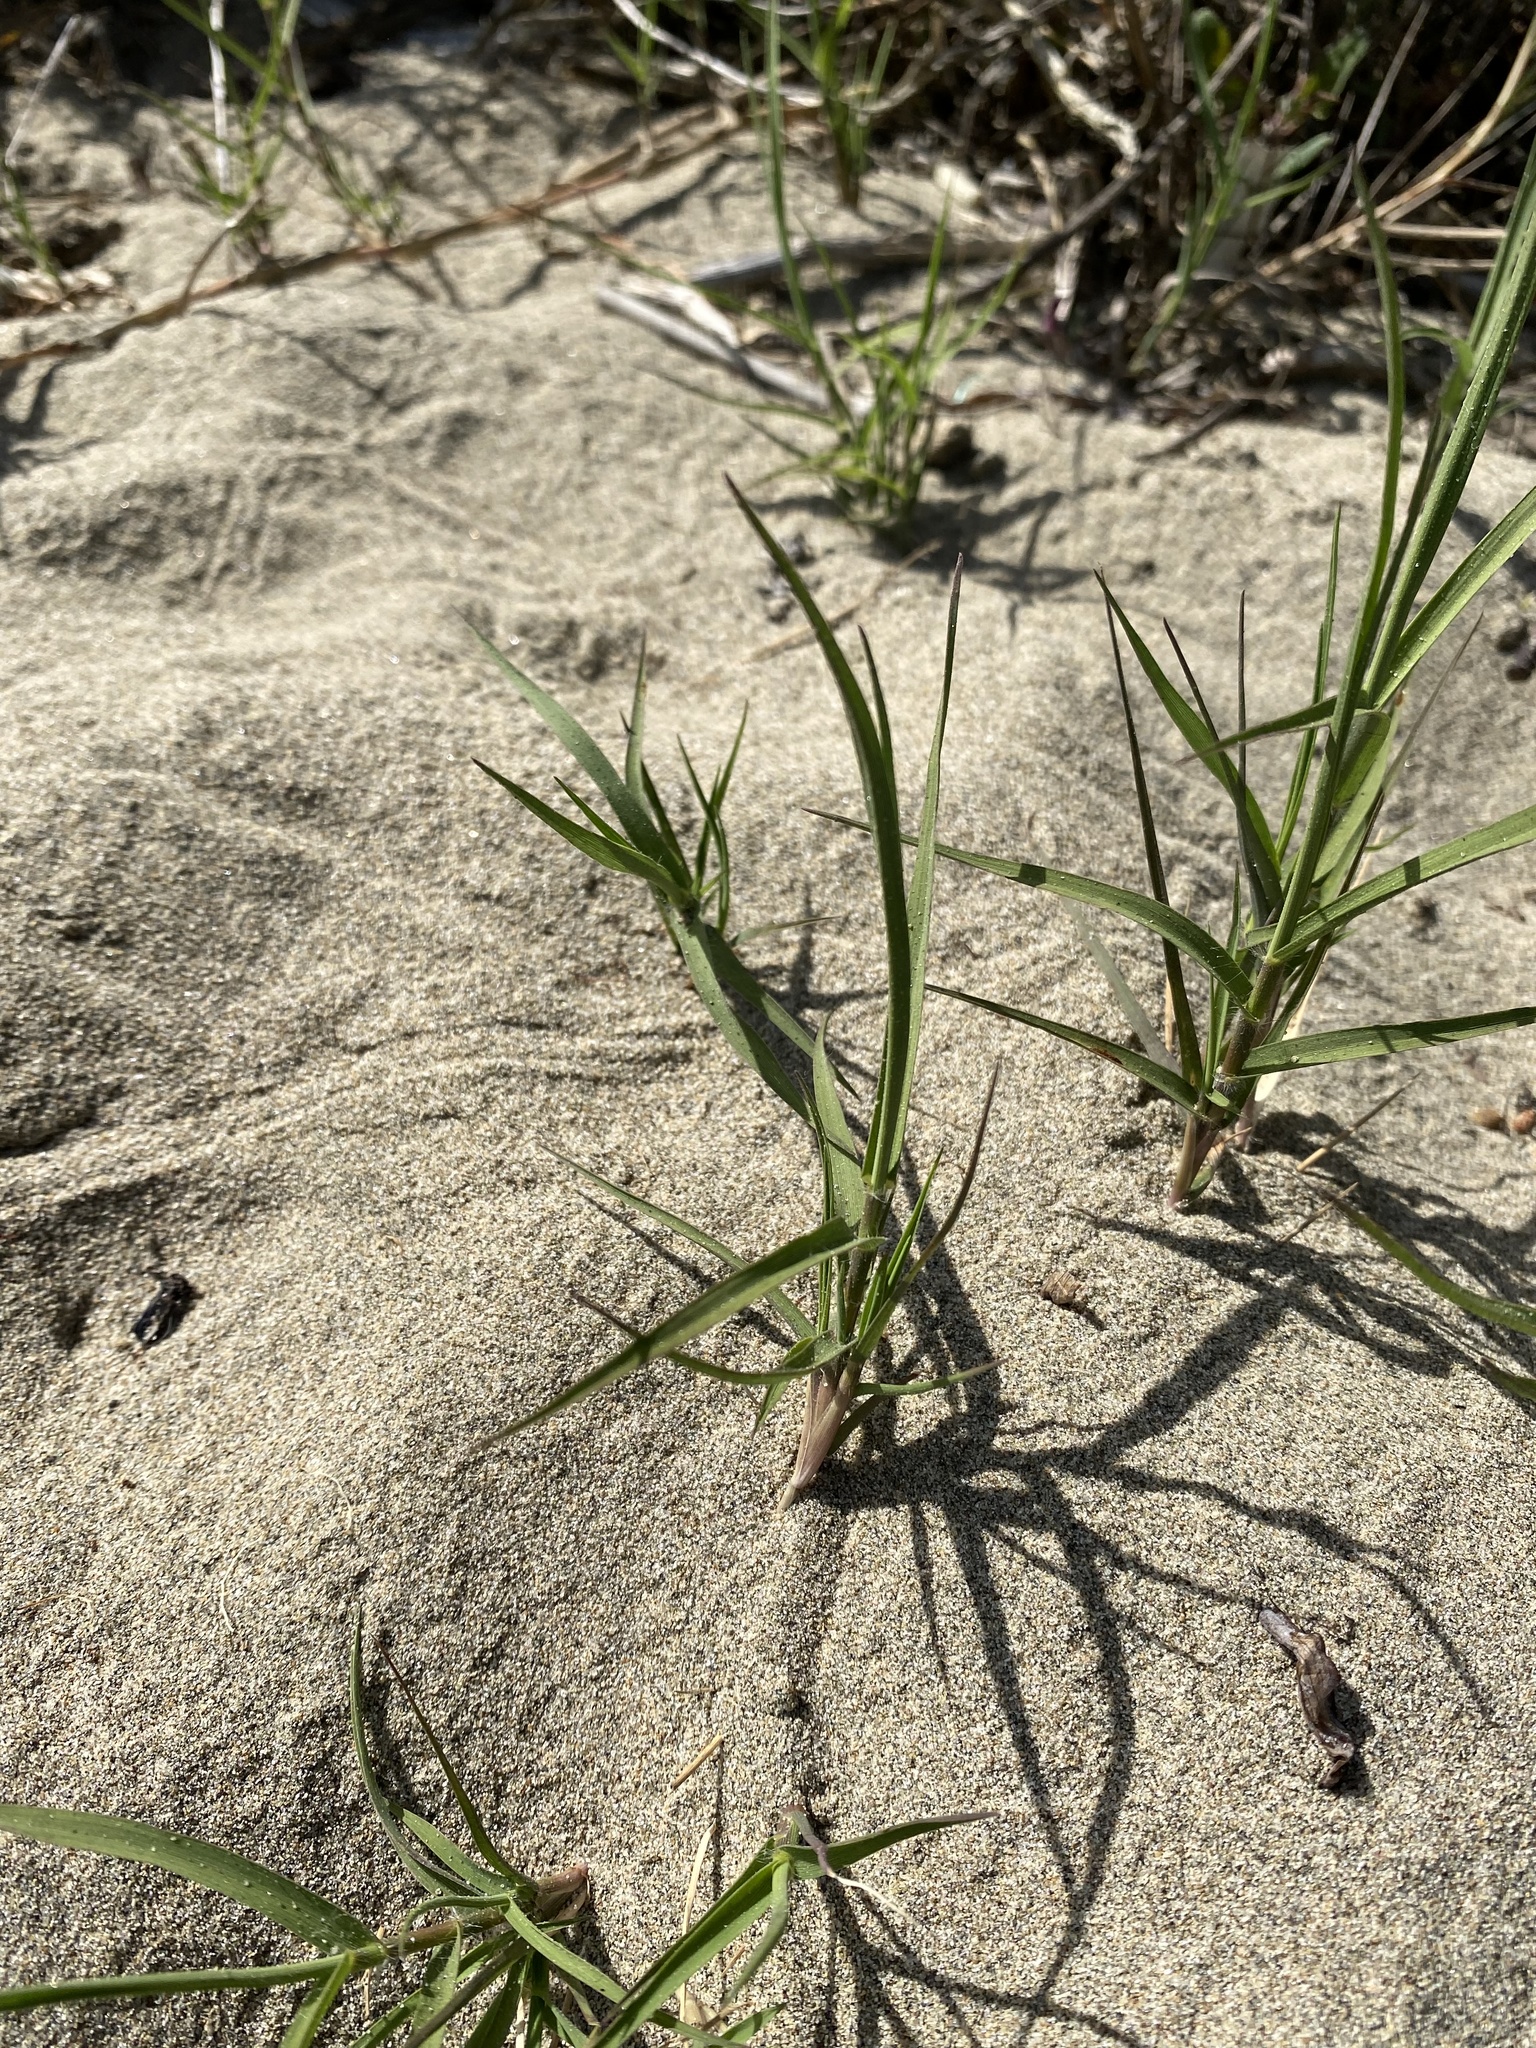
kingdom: Plantae
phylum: Tracheophyta
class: Liliopsida
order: Poales
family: Poaceae
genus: Distichlis
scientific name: Distichlis spicata
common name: Saltgrass
